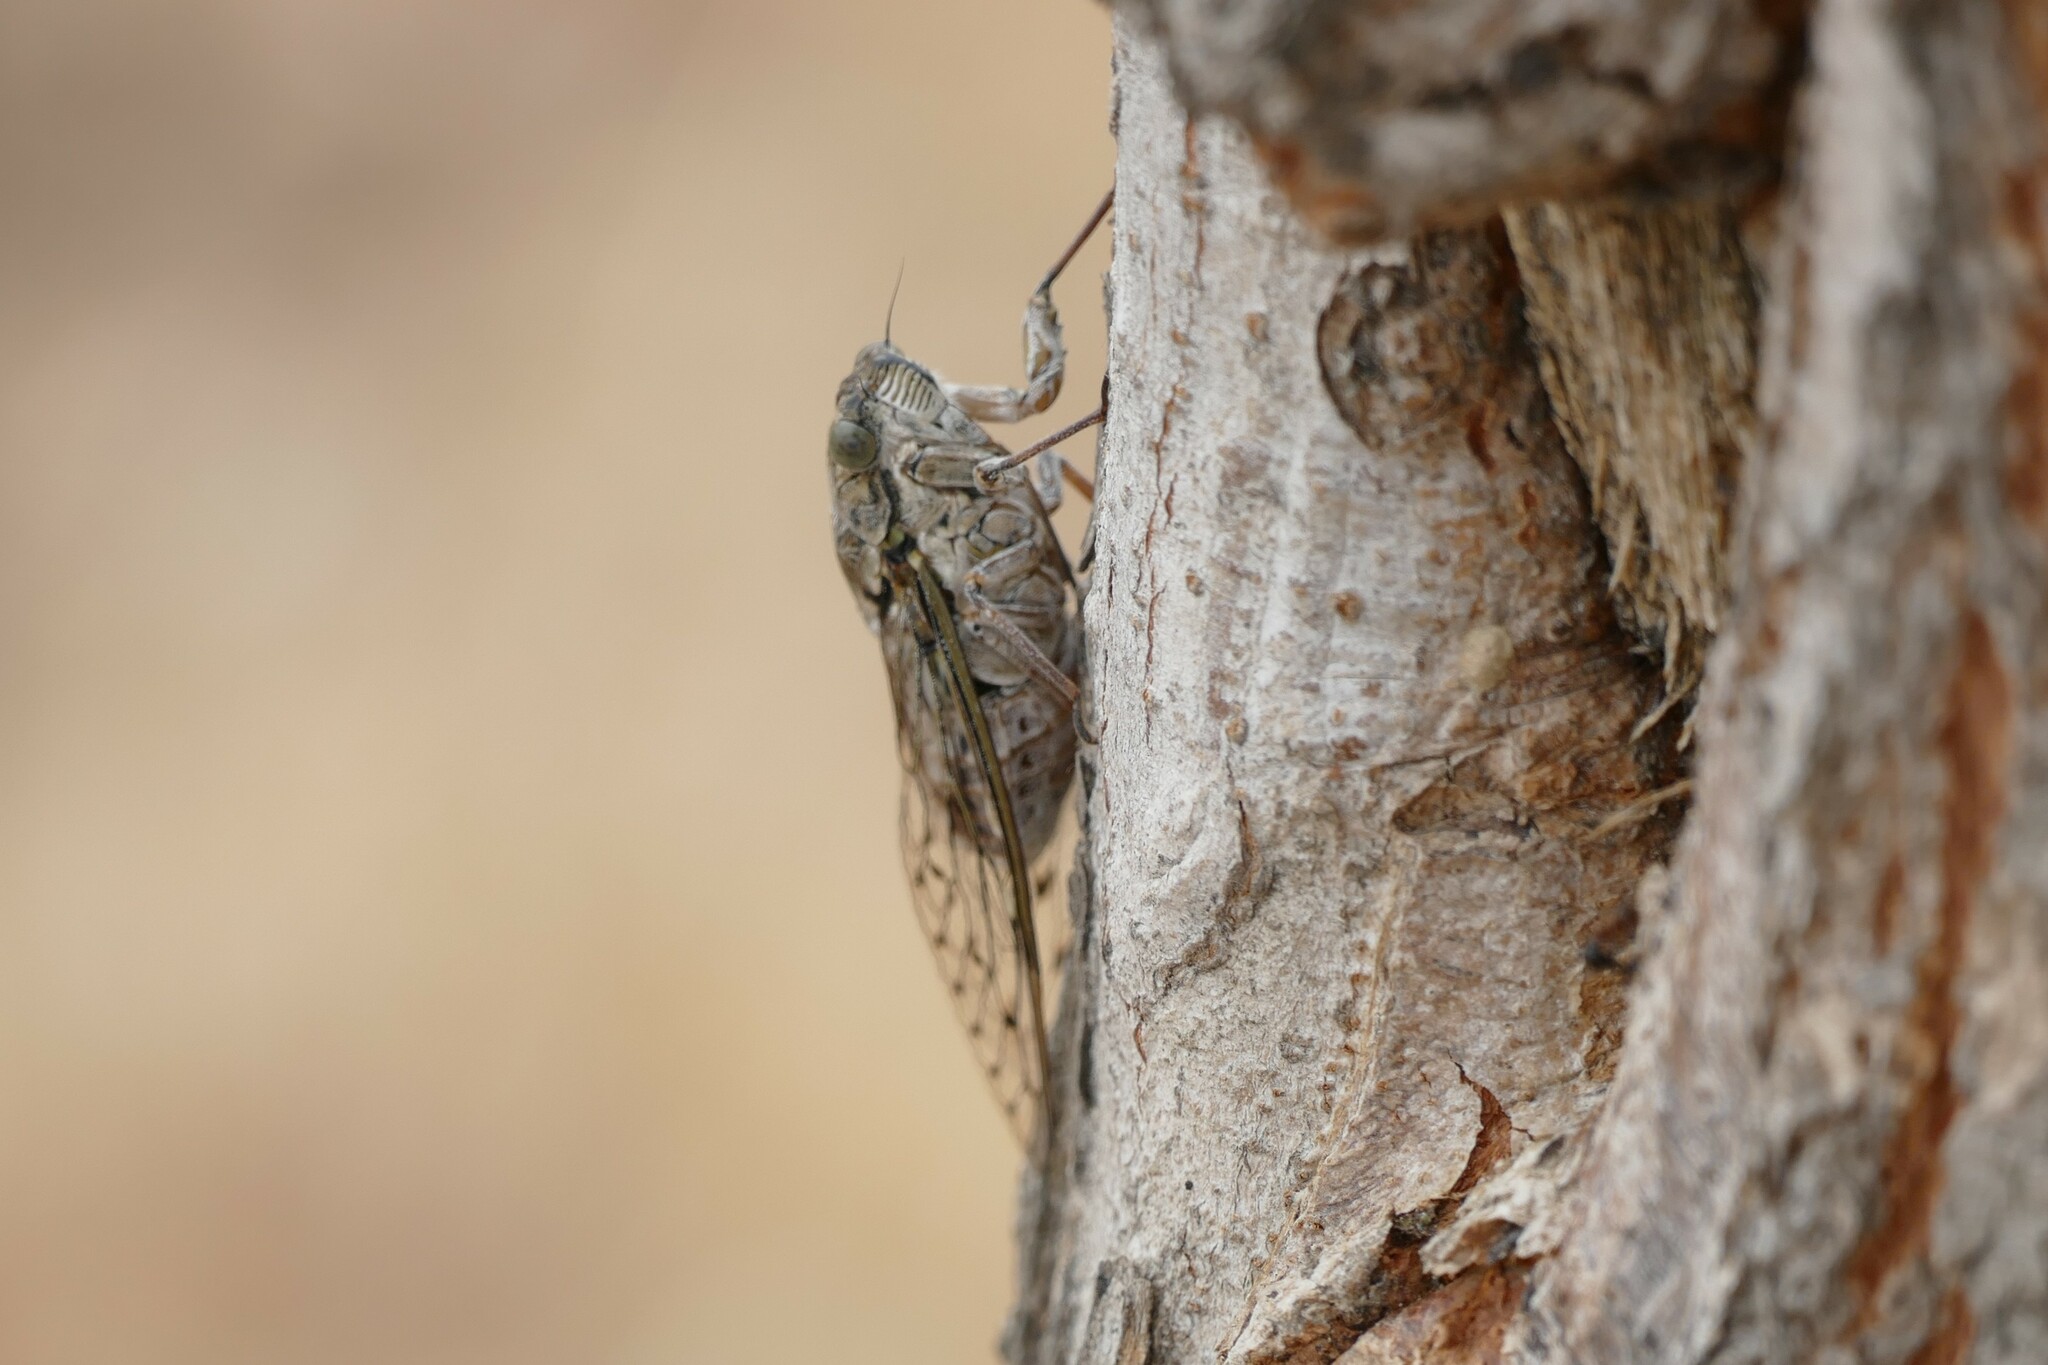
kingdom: Animalia
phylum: Arthropoda
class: Insecta
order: Hemiptera
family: Cicadidae
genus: Cicada
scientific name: Cicada orni
